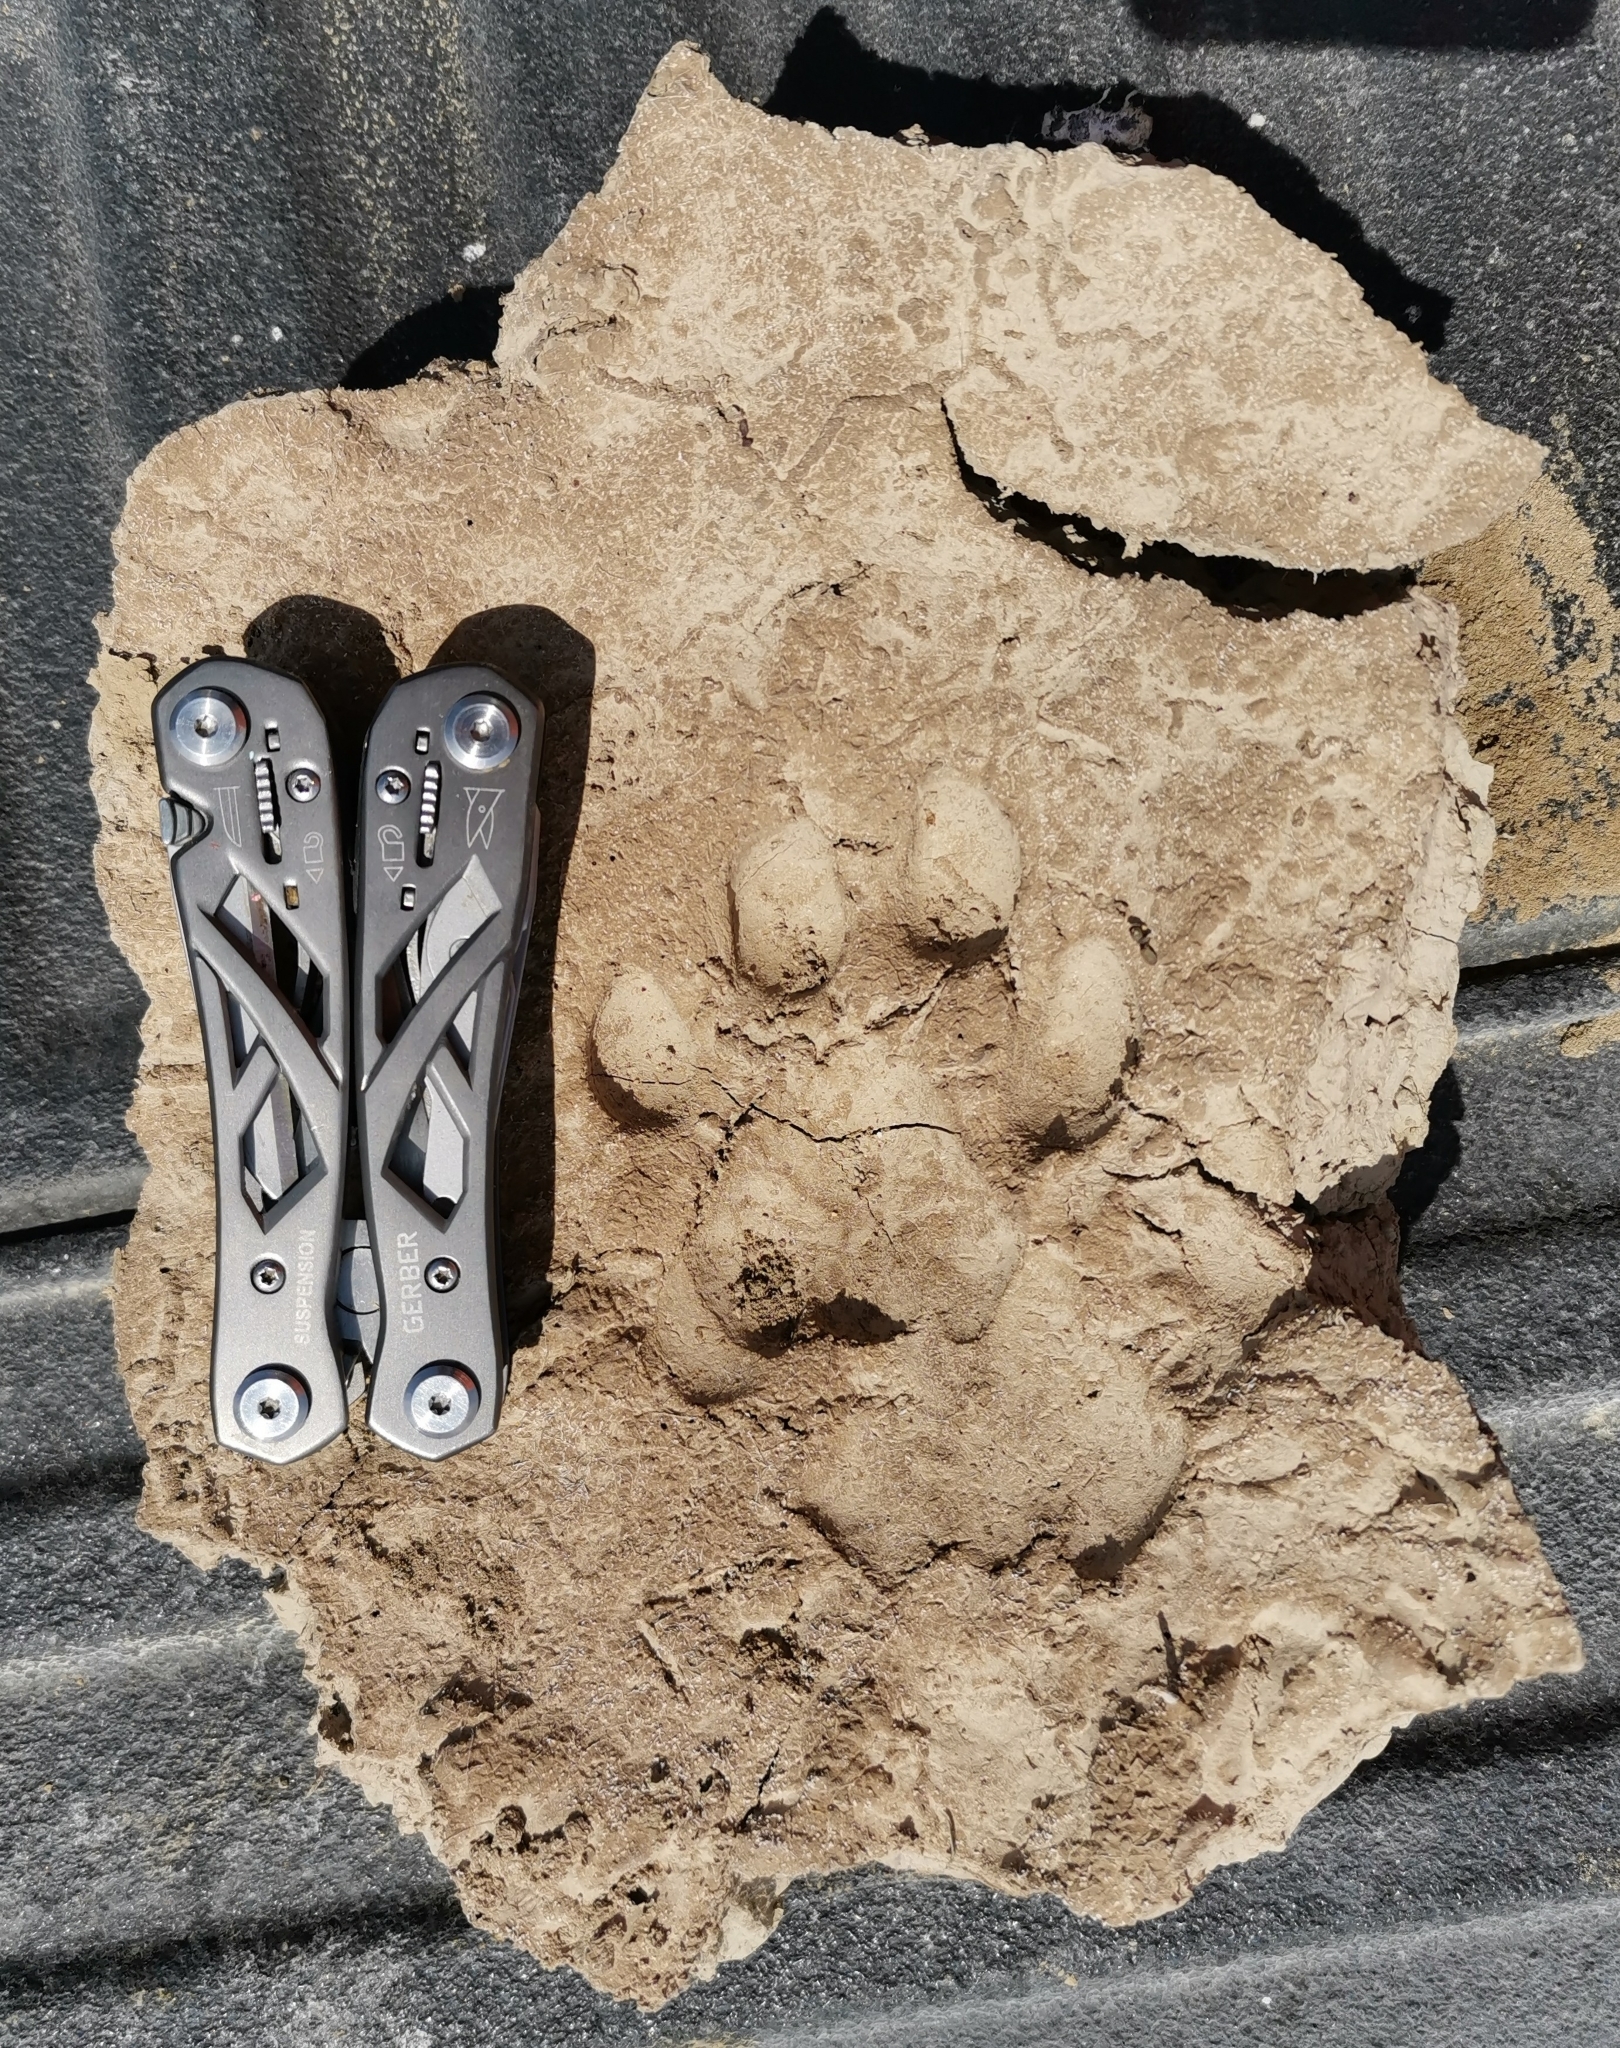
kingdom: Animalia
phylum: Chordata
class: Mammalia
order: Carnivora
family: Felidae
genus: Puma
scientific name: Puma concolor
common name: Puma
